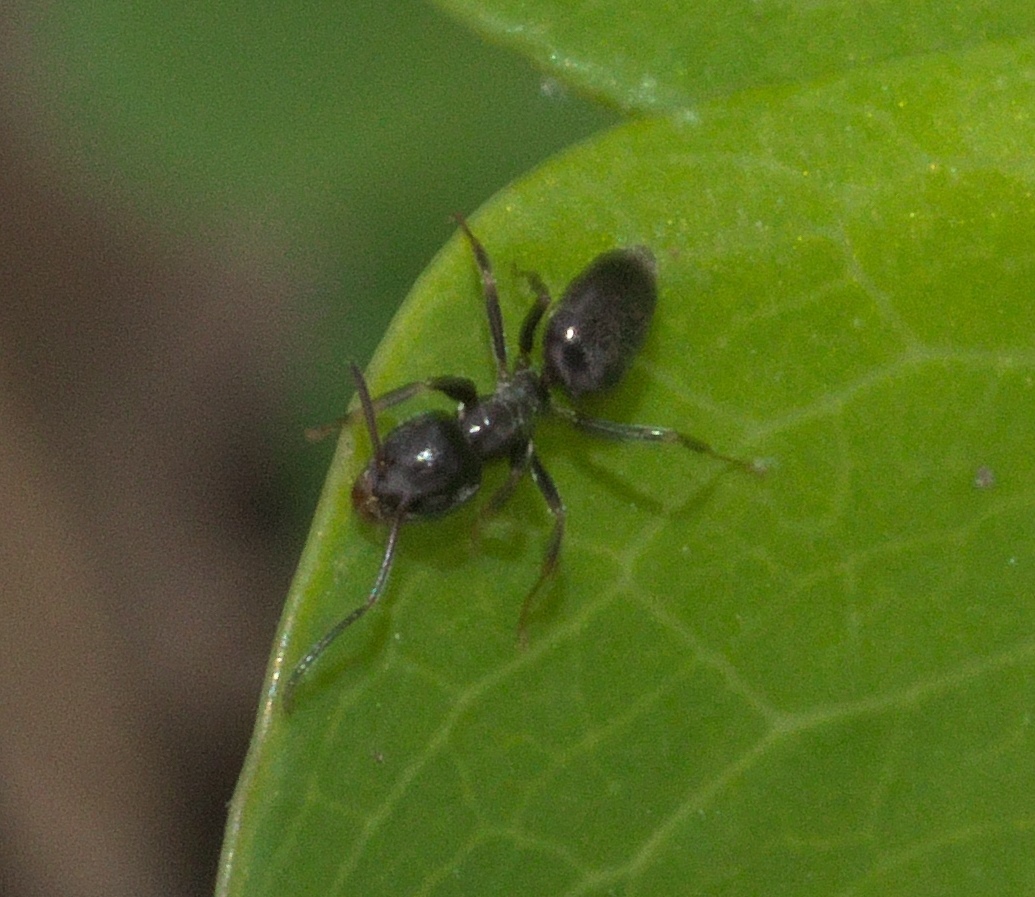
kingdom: Animalia
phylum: Arthropoda
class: Insecta
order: Hymenoptera
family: Formicidae
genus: Tapinoma
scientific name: Tapinoma sessile
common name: Odorous house ant
